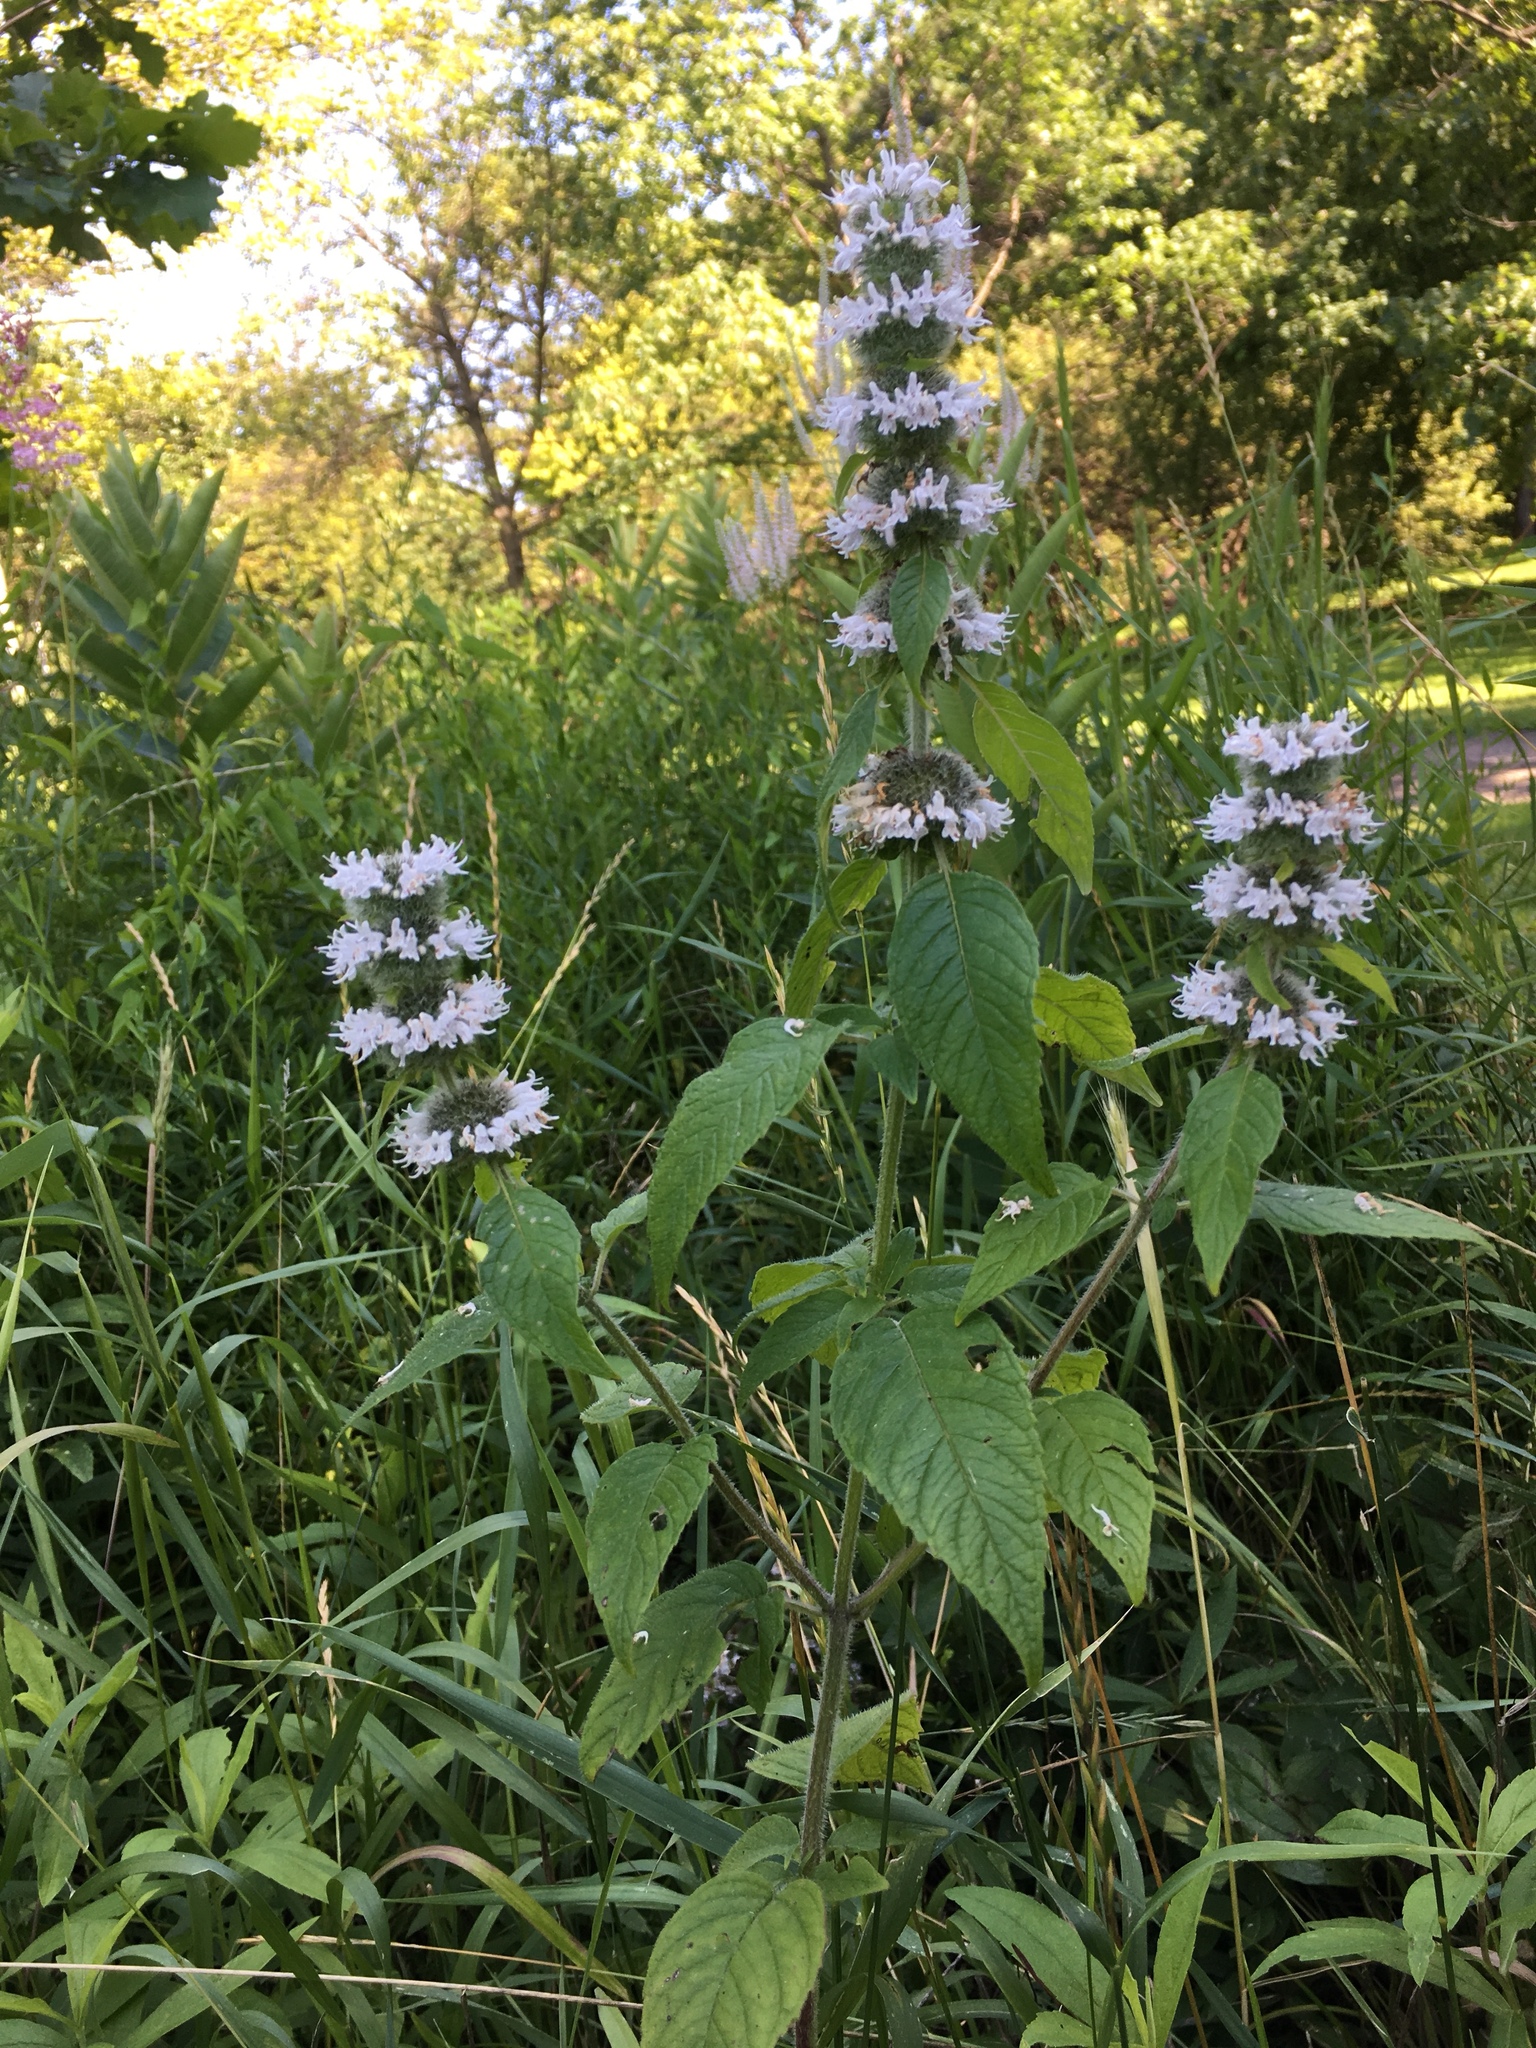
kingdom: Plantae
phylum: Tracheophyta
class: Magnoliopsida
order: Lamiales
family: Lamiaceae
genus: Blephilia
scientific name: Blephilia hirsuta
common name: Hairy blephilia
